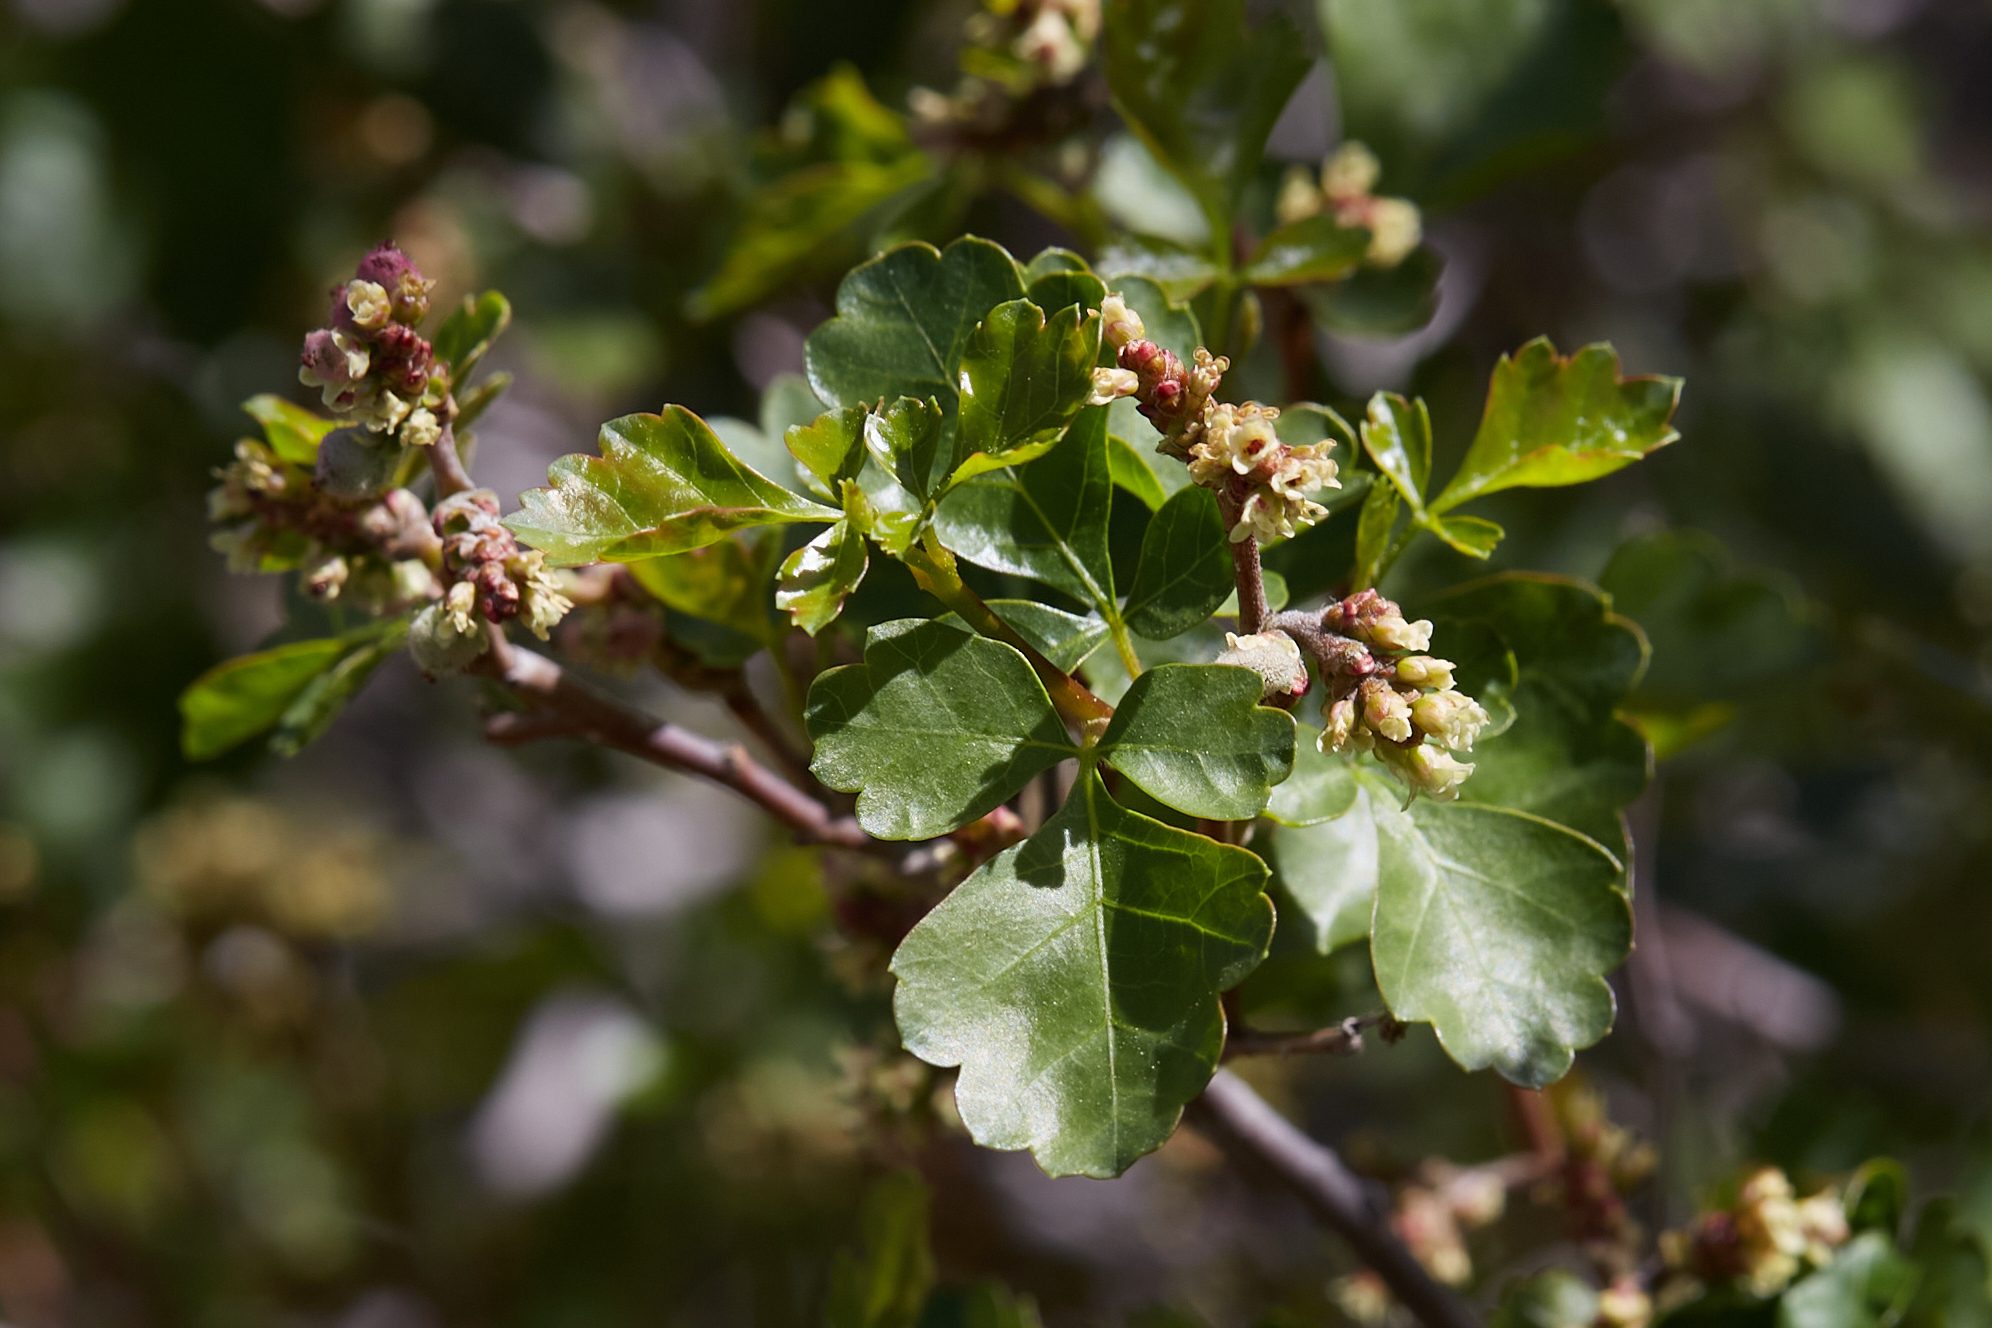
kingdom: Plantae
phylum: Tracheophyta
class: Magnoliopsida
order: Sapindales
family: Anacardiaceae
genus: Rhus
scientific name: Rhus aromatica
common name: Aromatic sumac
